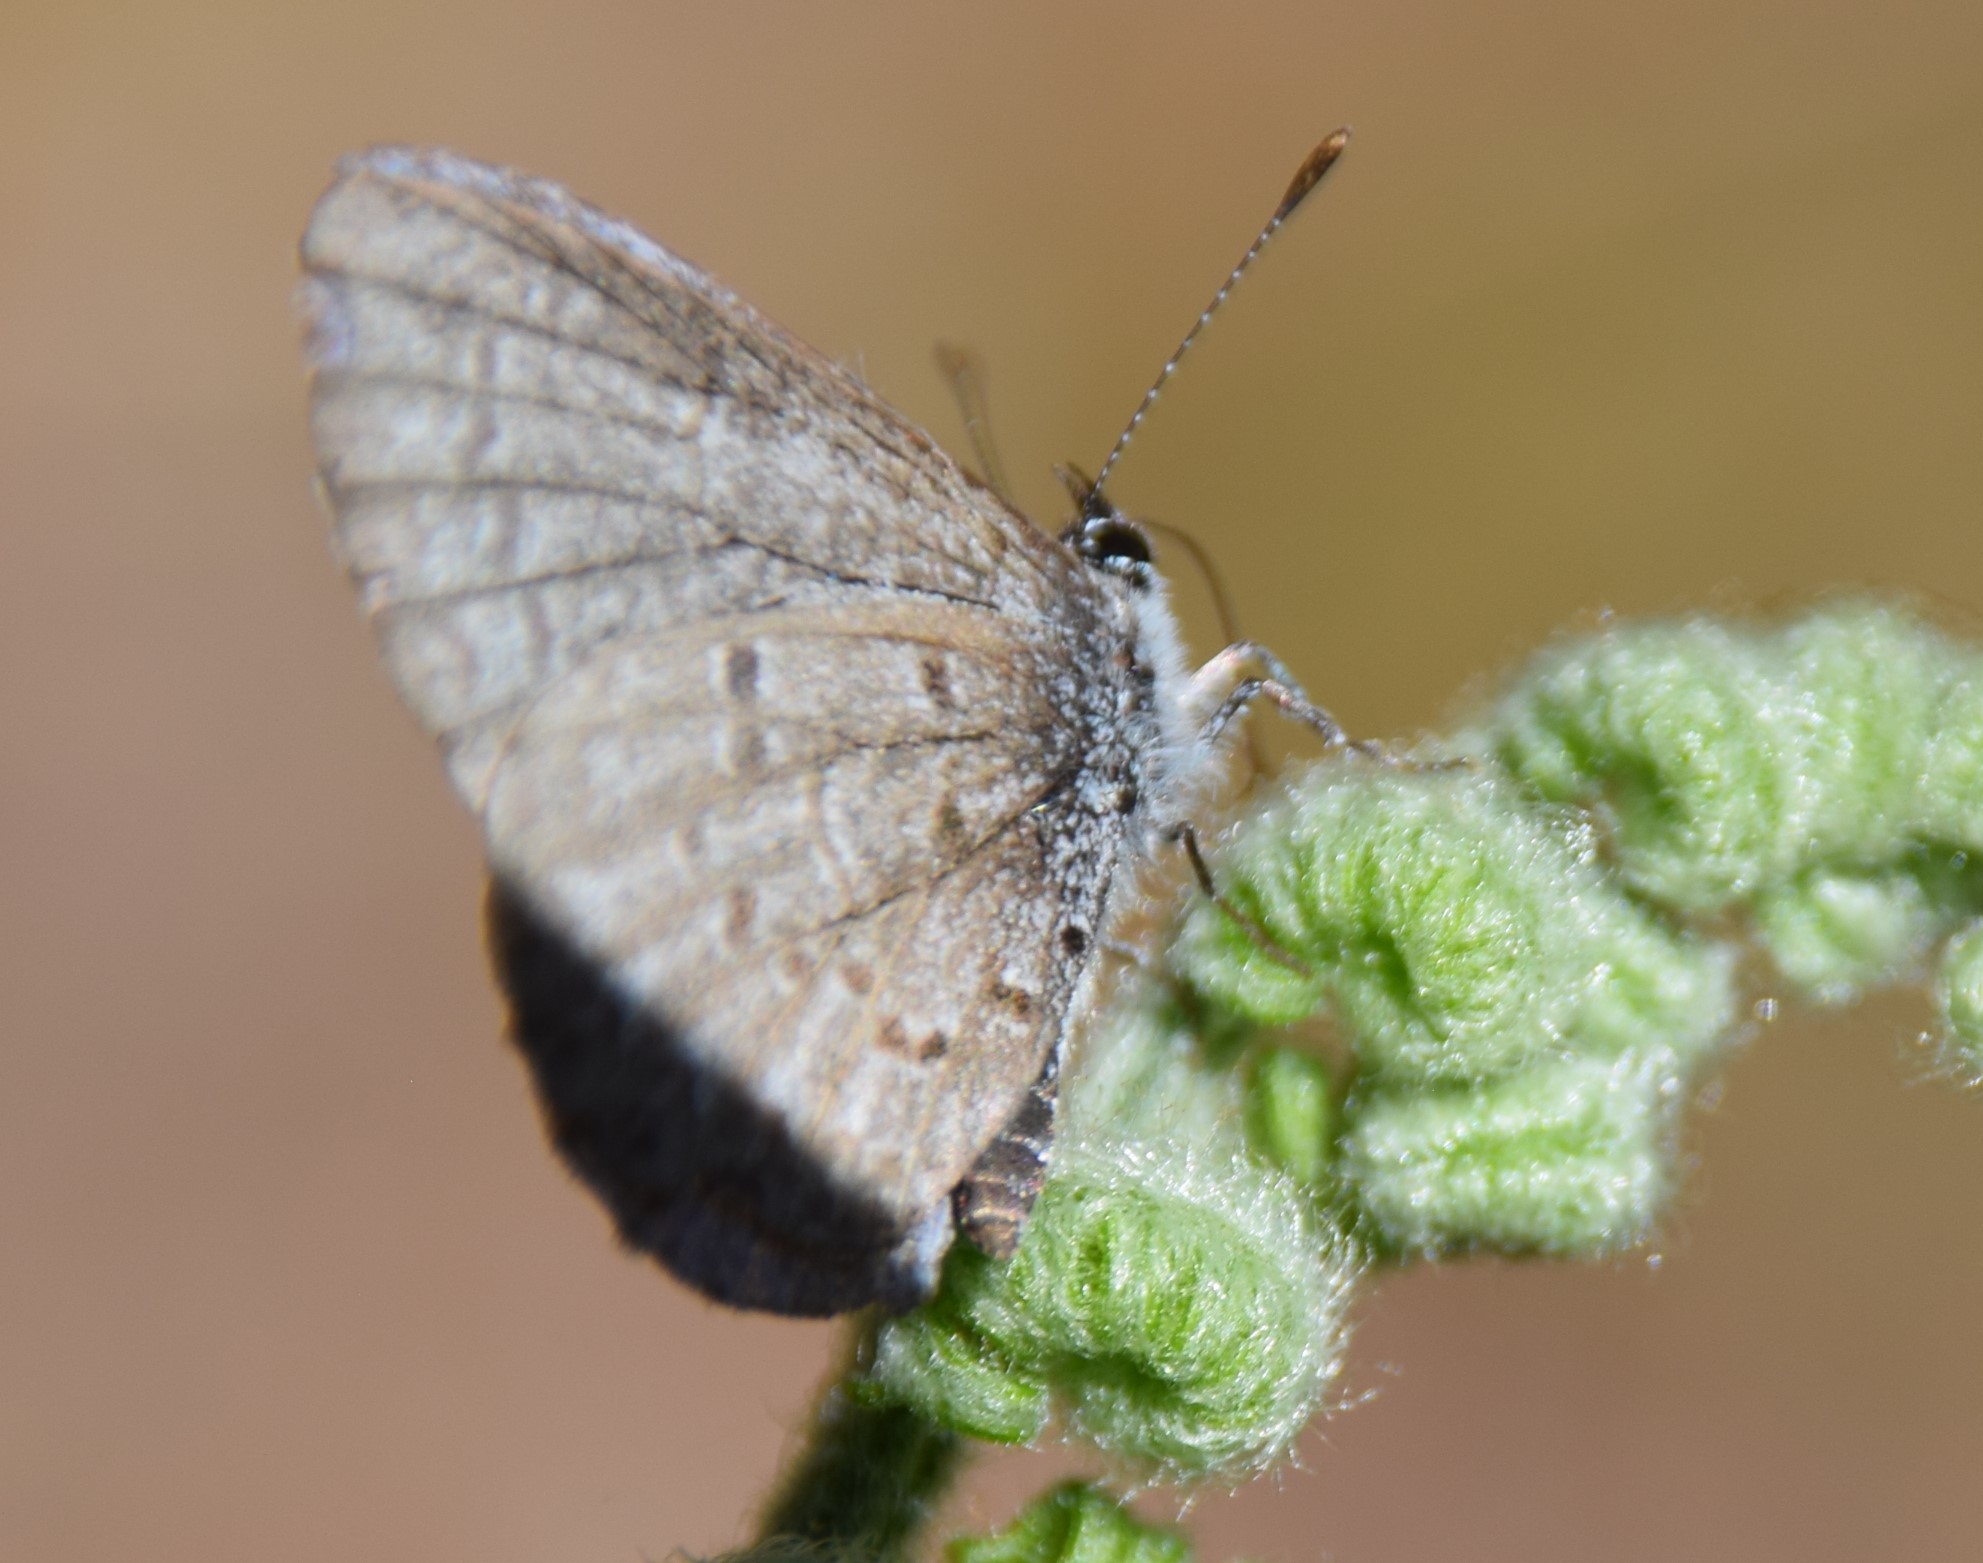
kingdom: Animalia
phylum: Arthropoda
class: Insecta
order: Lepidoptera
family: Lycaenidae
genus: Celastrina
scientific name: Celastrina lucia
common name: Lucia azure
